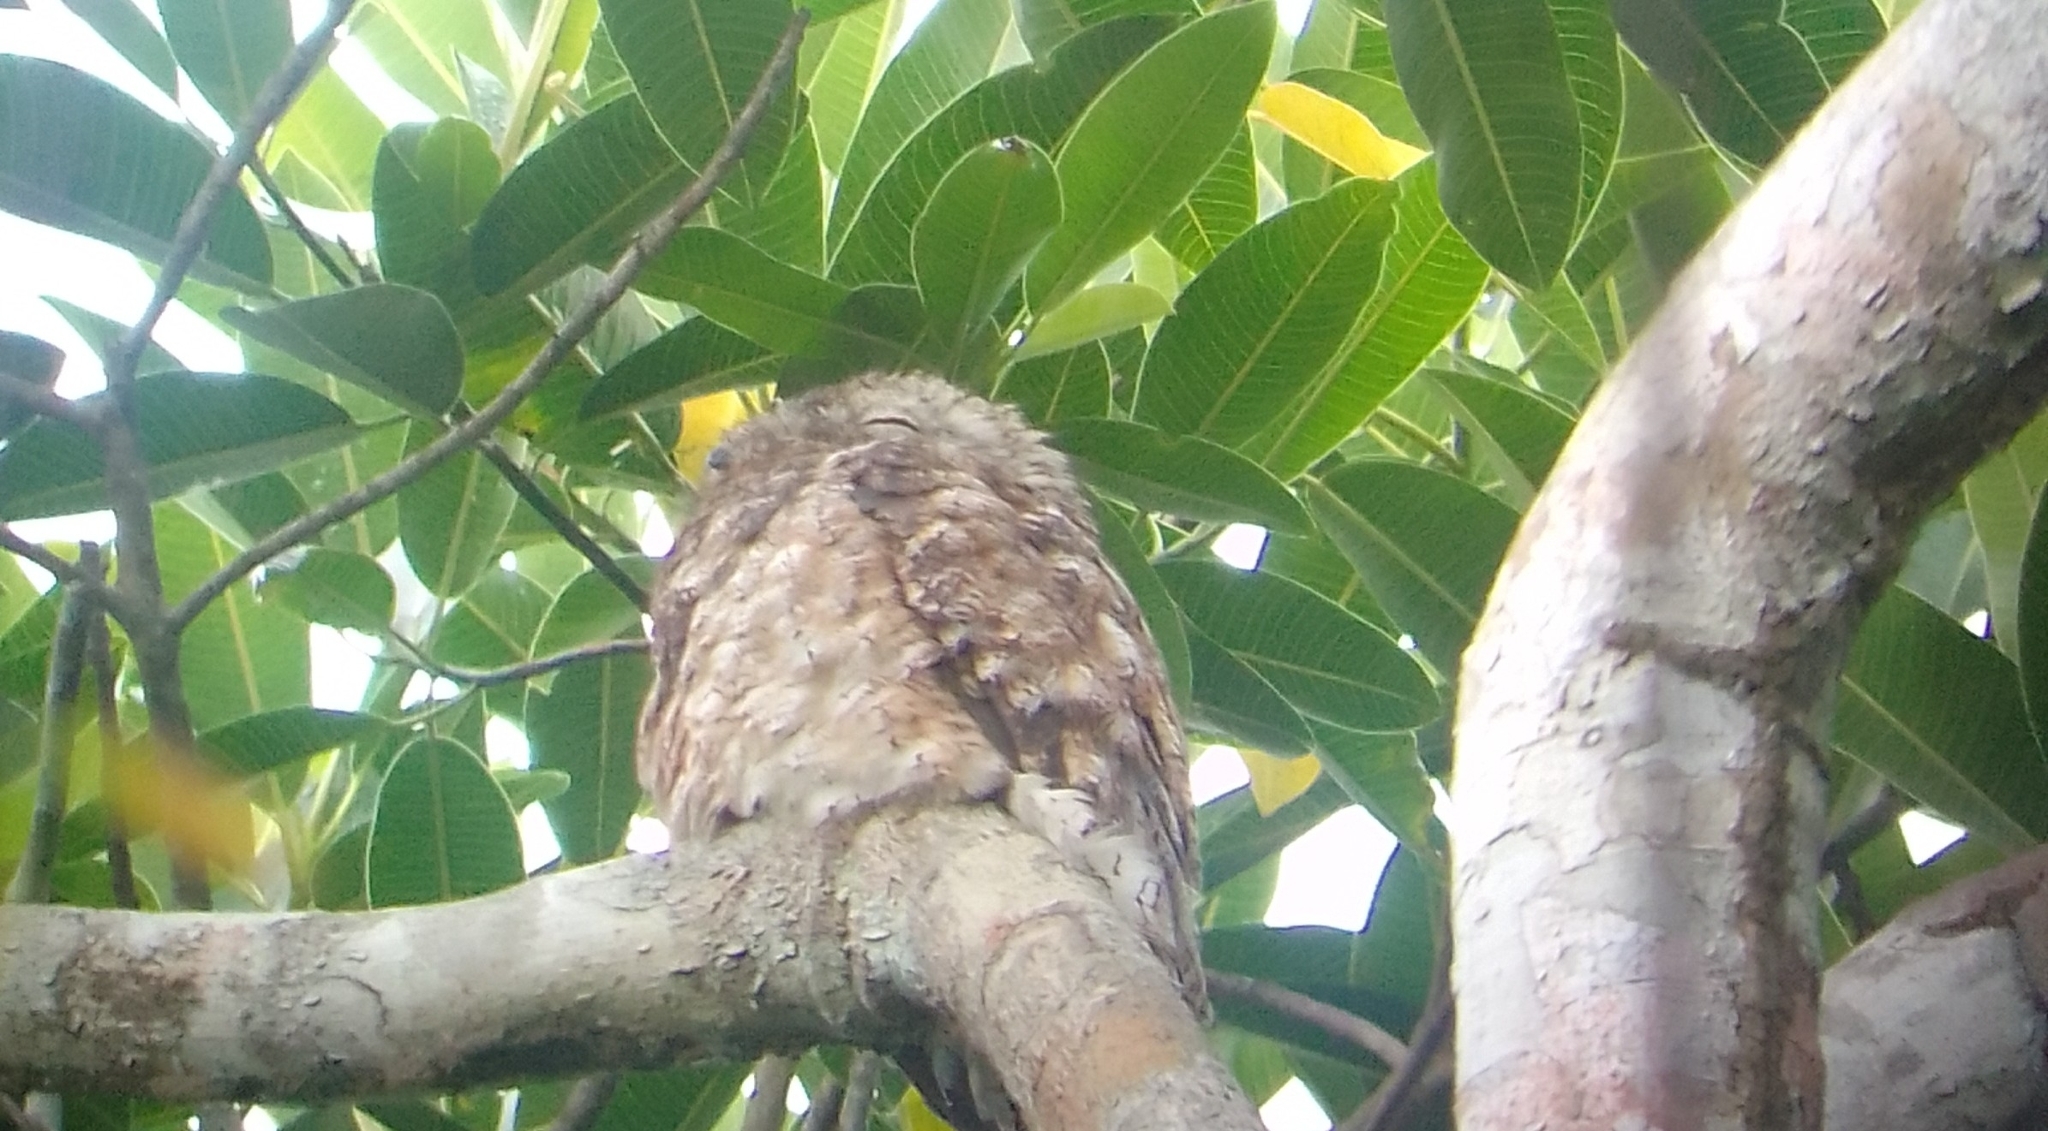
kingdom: Animalia
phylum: Chordata
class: Aves
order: Nyctibiiformes
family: Nyctibiidae
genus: Nyctibius
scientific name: Nyctibius grandis
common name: Great potoo
